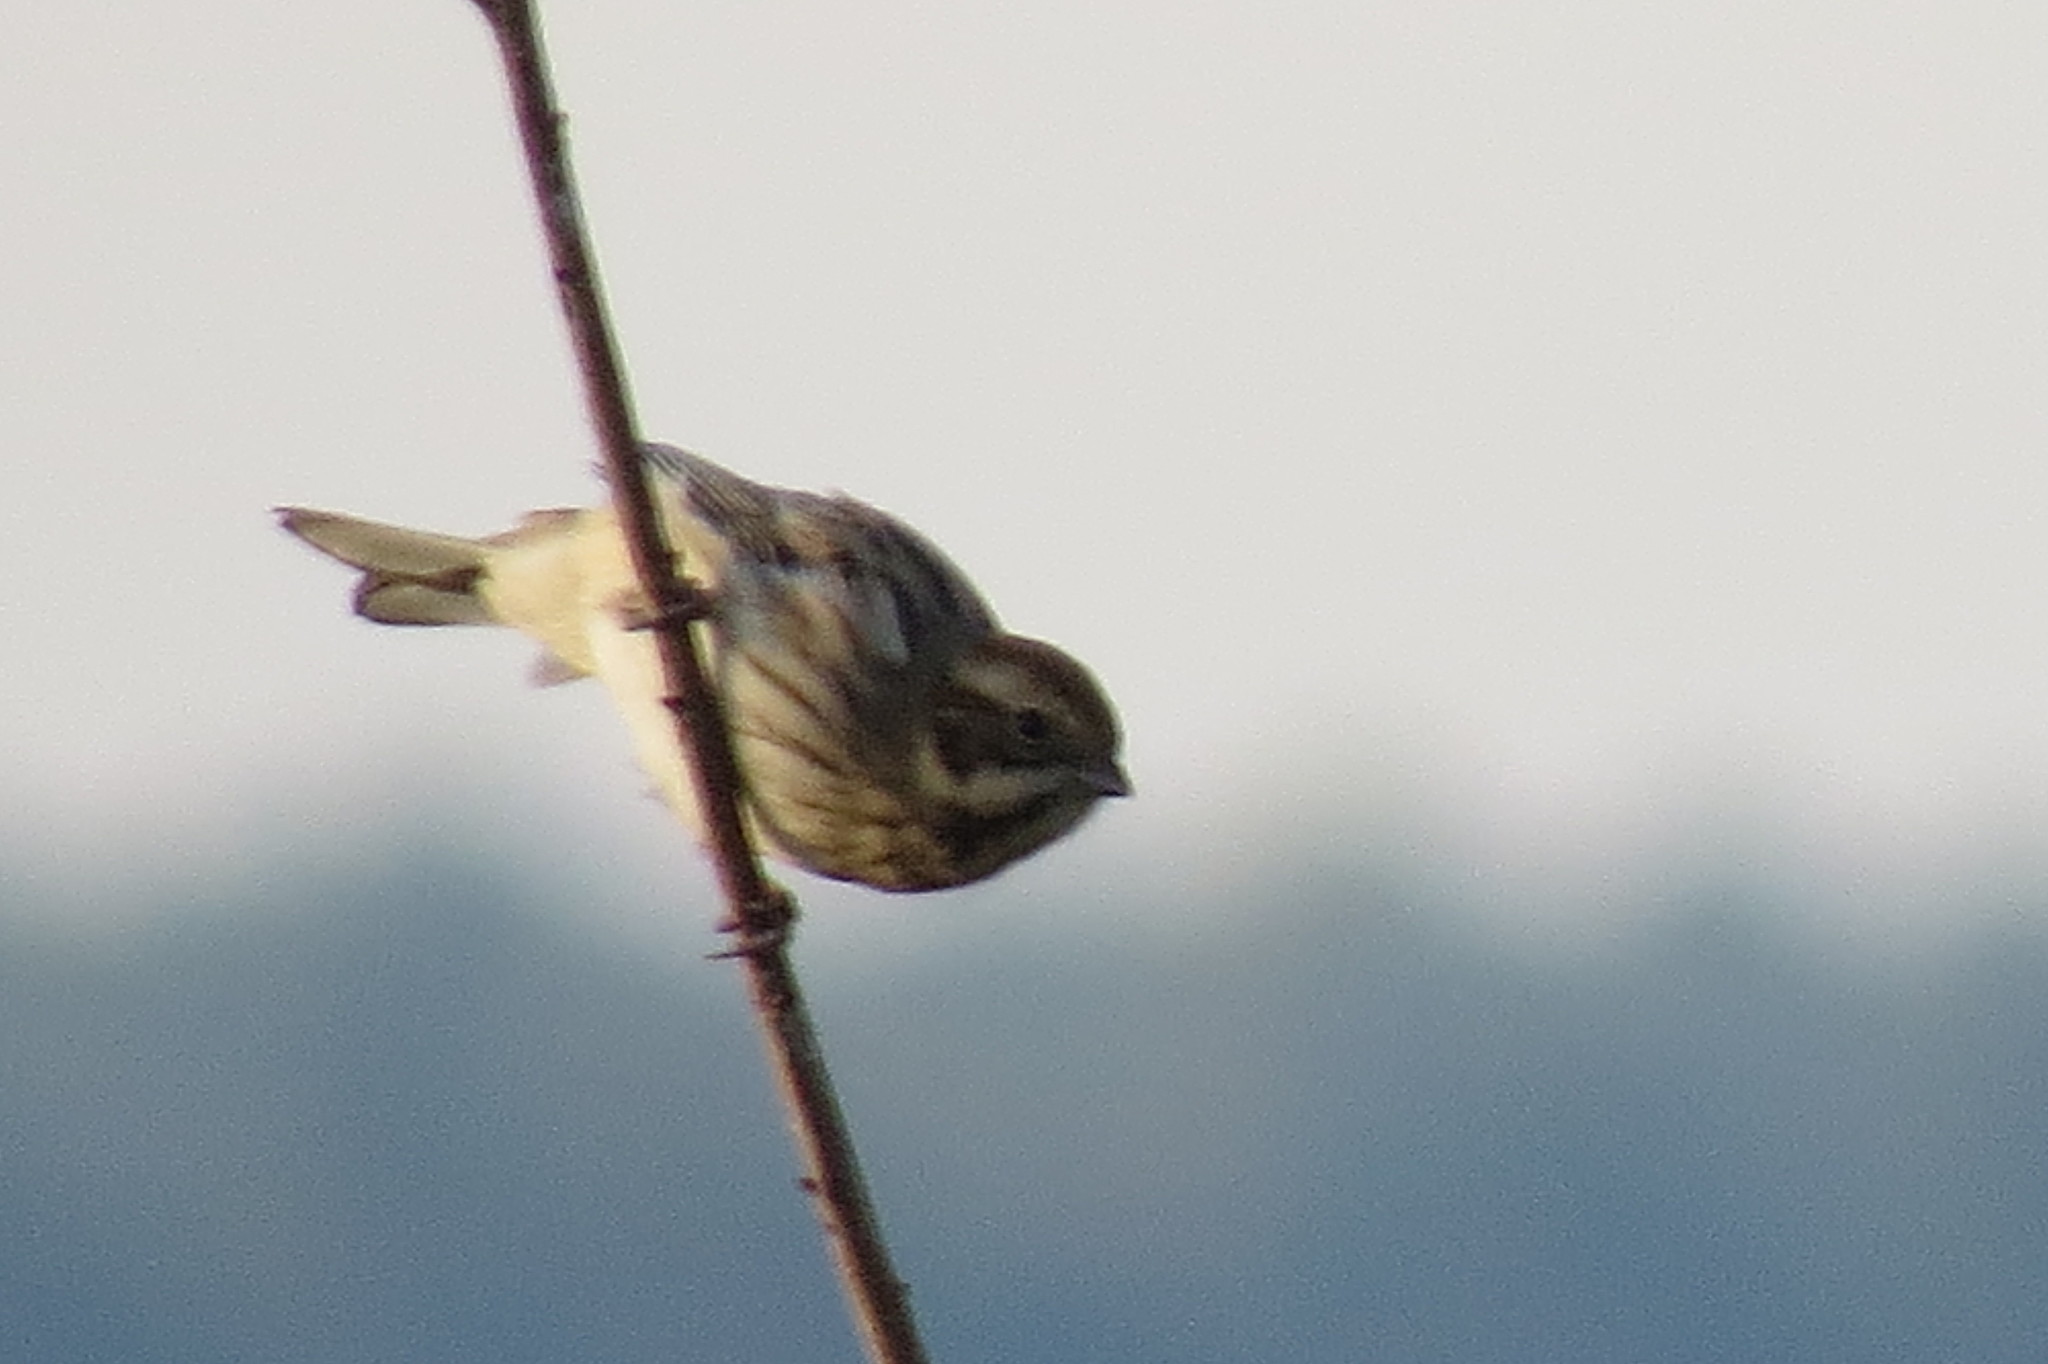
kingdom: Animalia
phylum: Chordata
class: Aves
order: Passeriformes
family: Emberizidae
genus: Emberiza
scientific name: Emberiza schoeniclus
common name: Reed bunting
